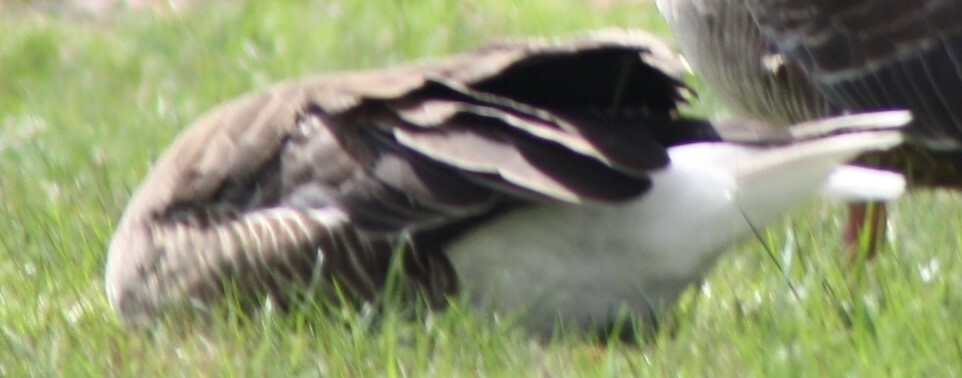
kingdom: Animalia
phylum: Chordata
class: Aves
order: Anseriformes
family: Anatidae
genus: Anser
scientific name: Anser anser
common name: Greylag goose
